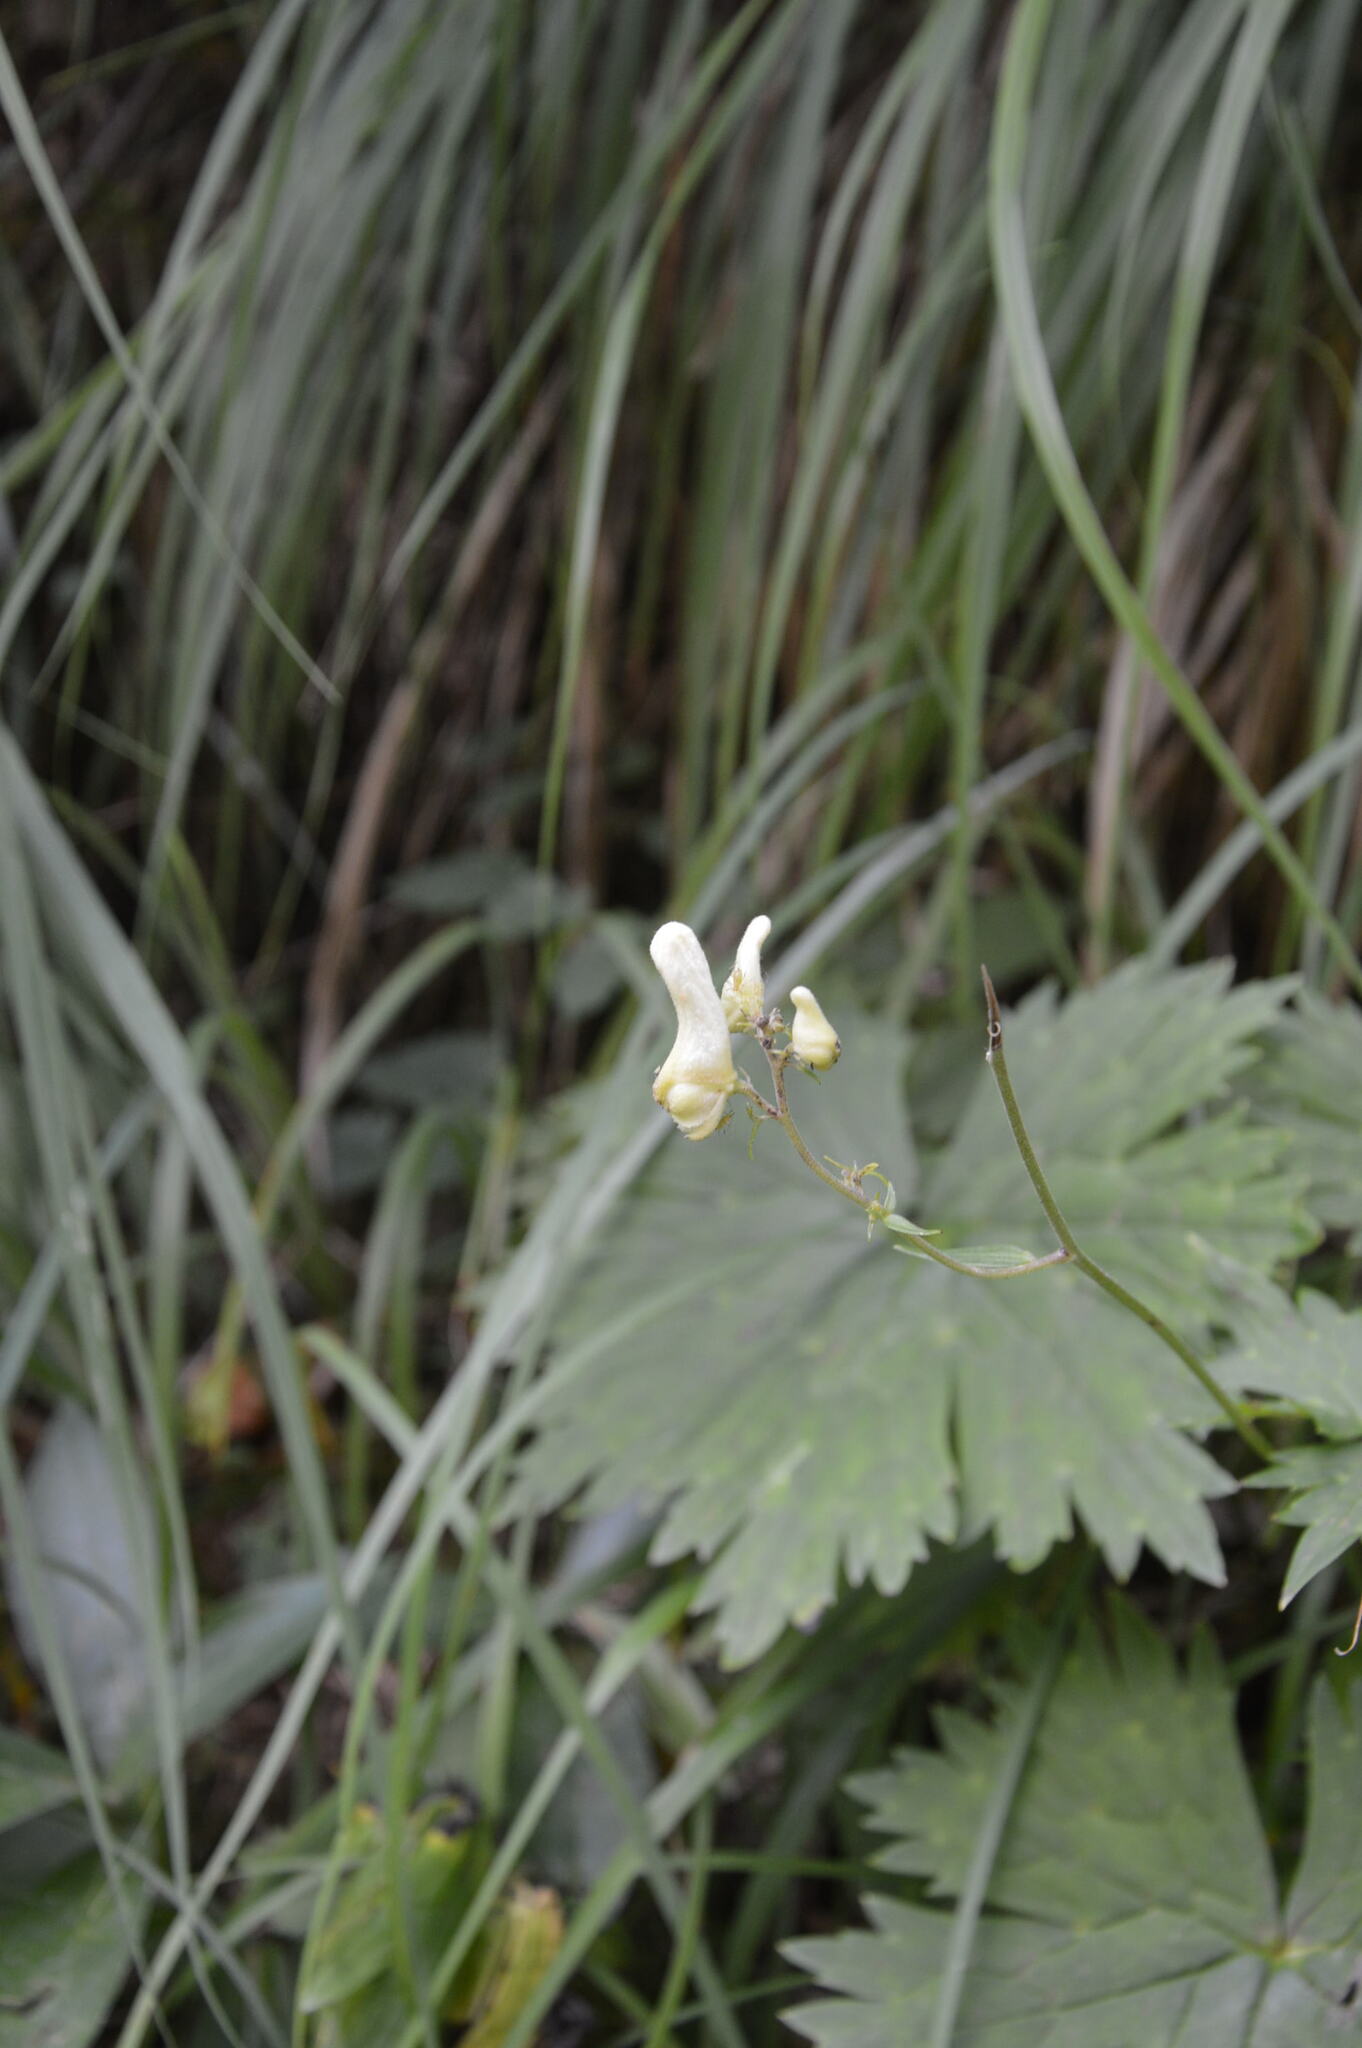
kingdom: Plantae
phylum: Tracheophyta
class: Magnoliopsida
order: Ranunculales
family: Ranunculaceae
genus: Aconitum
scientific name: Aconitum lycoctonum
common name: Wolf's-bane
